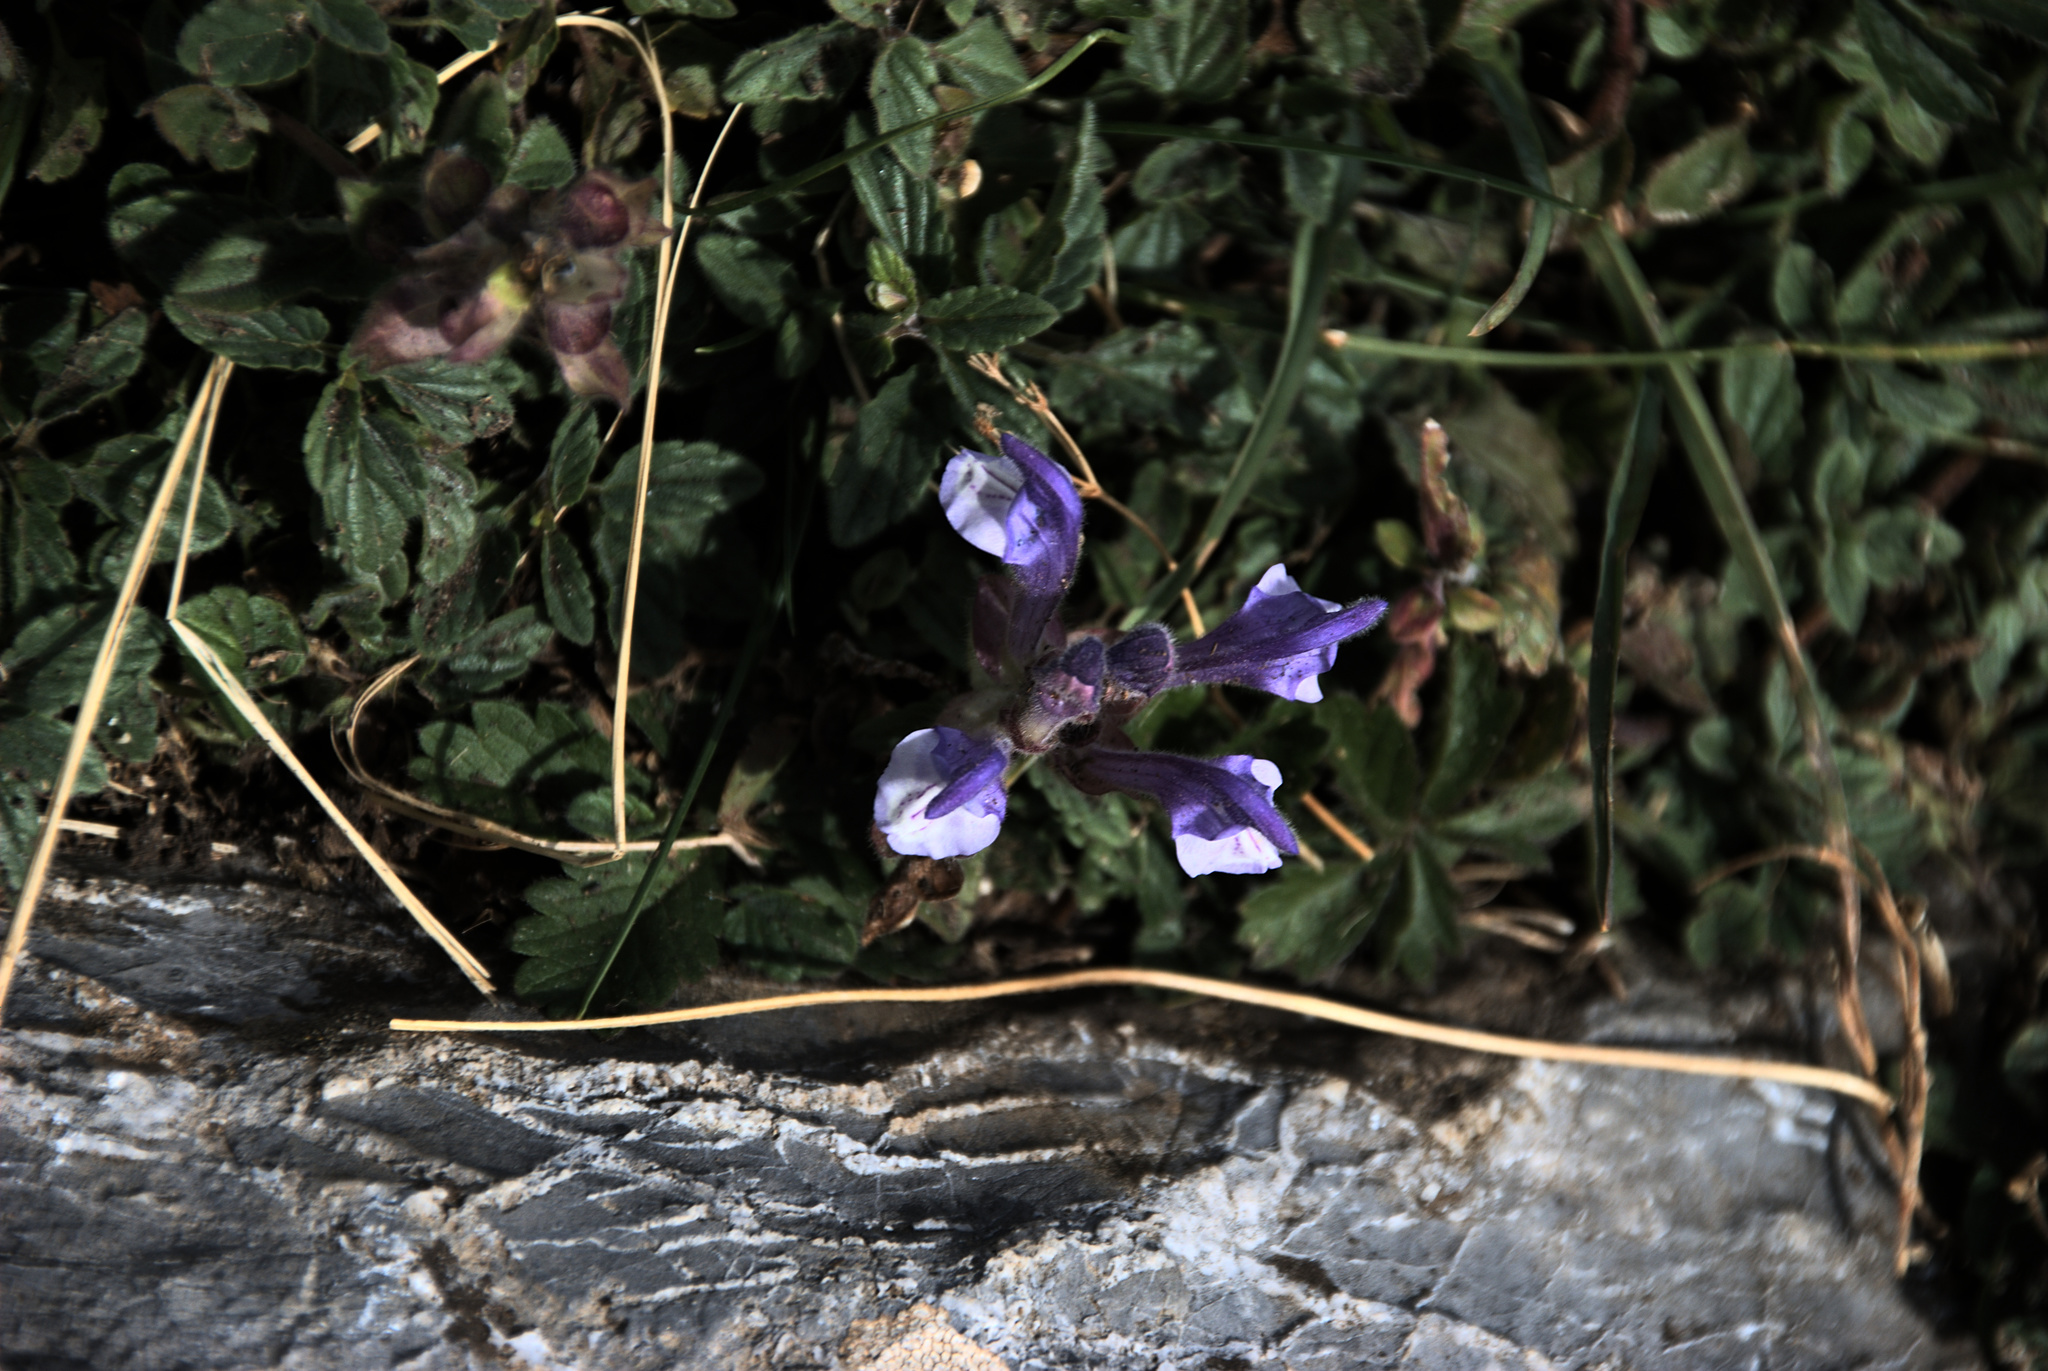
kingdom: Plantae
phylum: Tracheophyta
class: Magnoliopsida
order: Lamiales
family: Lamiaceae
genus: Scutellaria
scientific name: Scutellaria alpina
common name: Alpine scullcap
